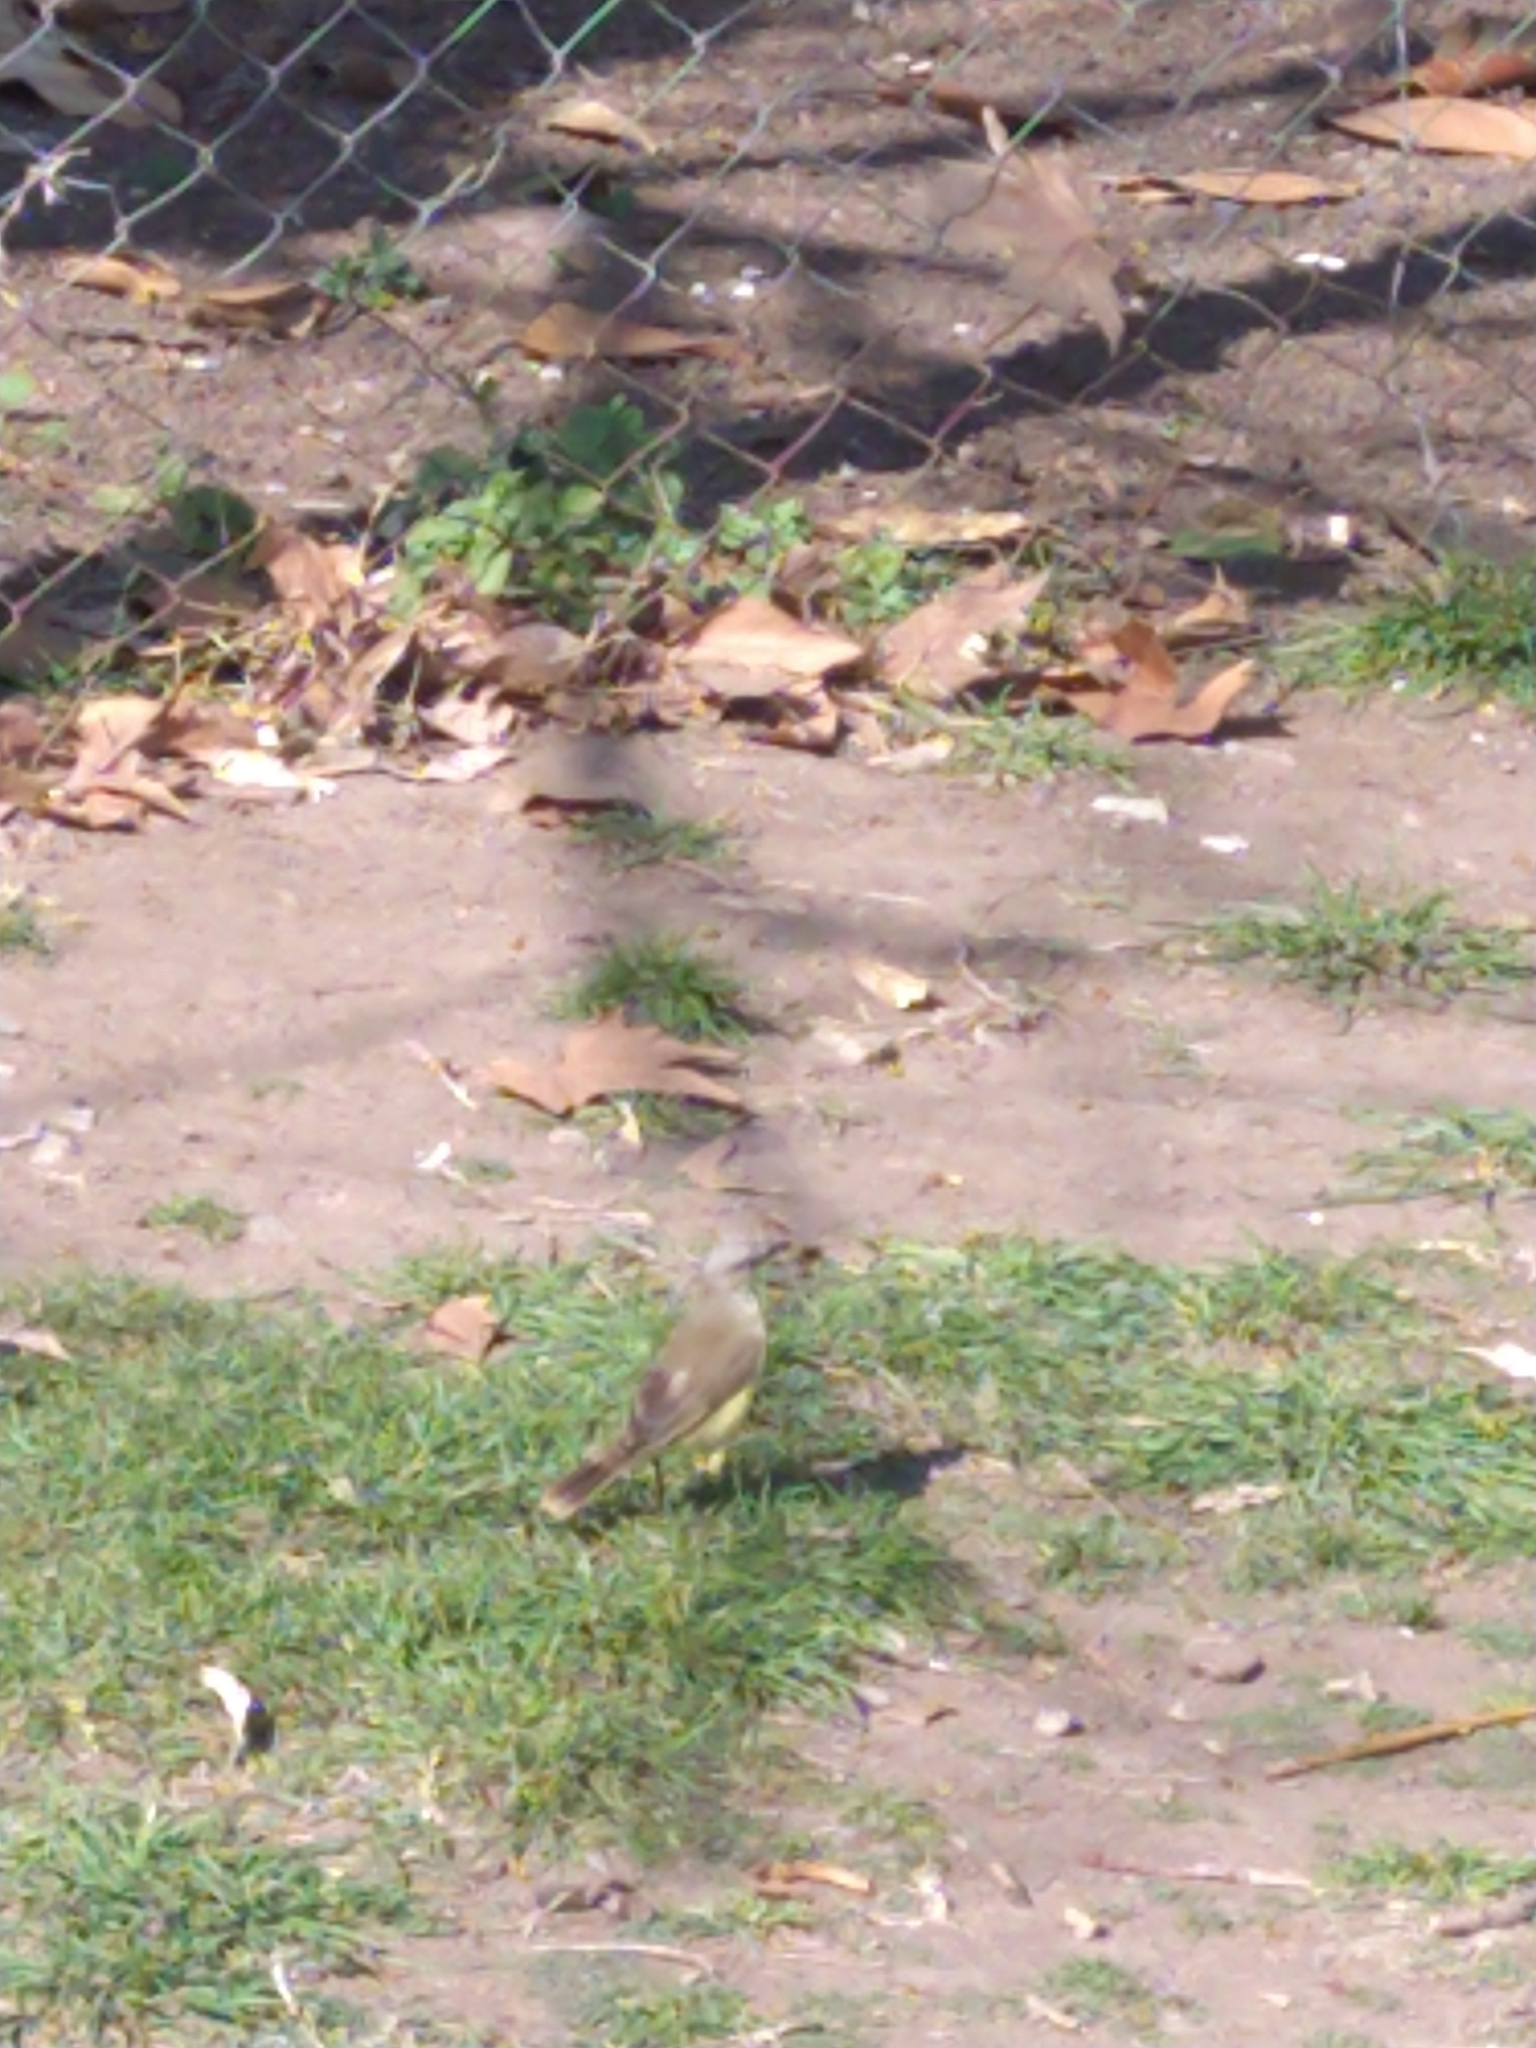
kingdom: Animalia
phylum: Chordata
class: Aves
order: Passeriformes
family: Tyrannidae
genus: Machetornis
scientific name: Machetornis rixosa
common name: Cattle tyrant
